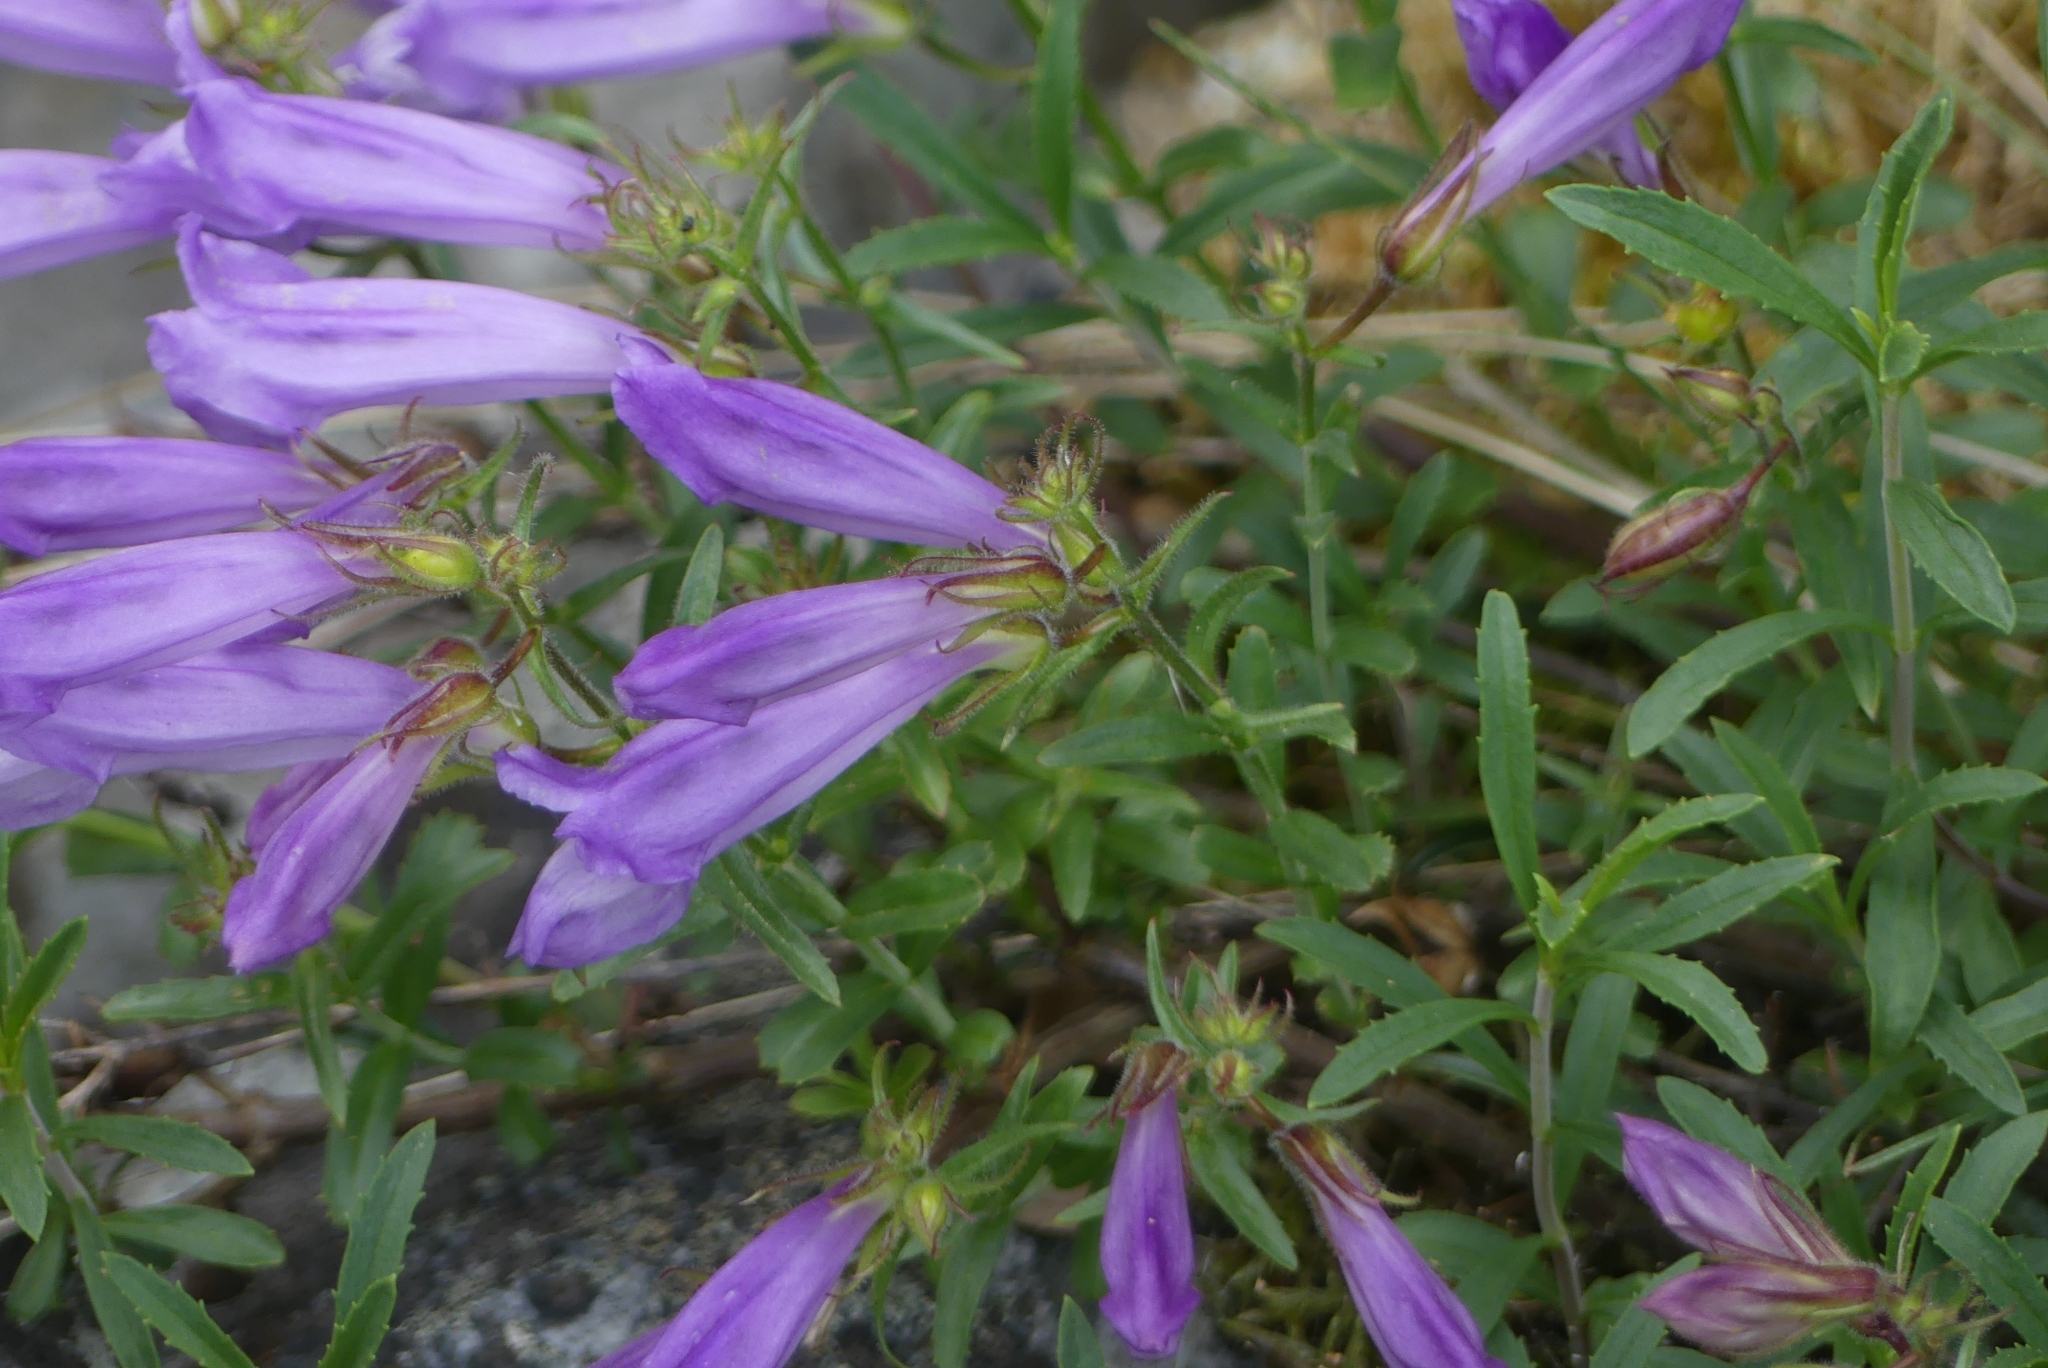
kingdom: Plantae
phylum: Tracheophyta
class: Magnoliopsida
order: Lamiales
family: Plantaginaceae
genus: Penstemon
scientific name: Penstemon fruticosus
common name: Bush penstemon
